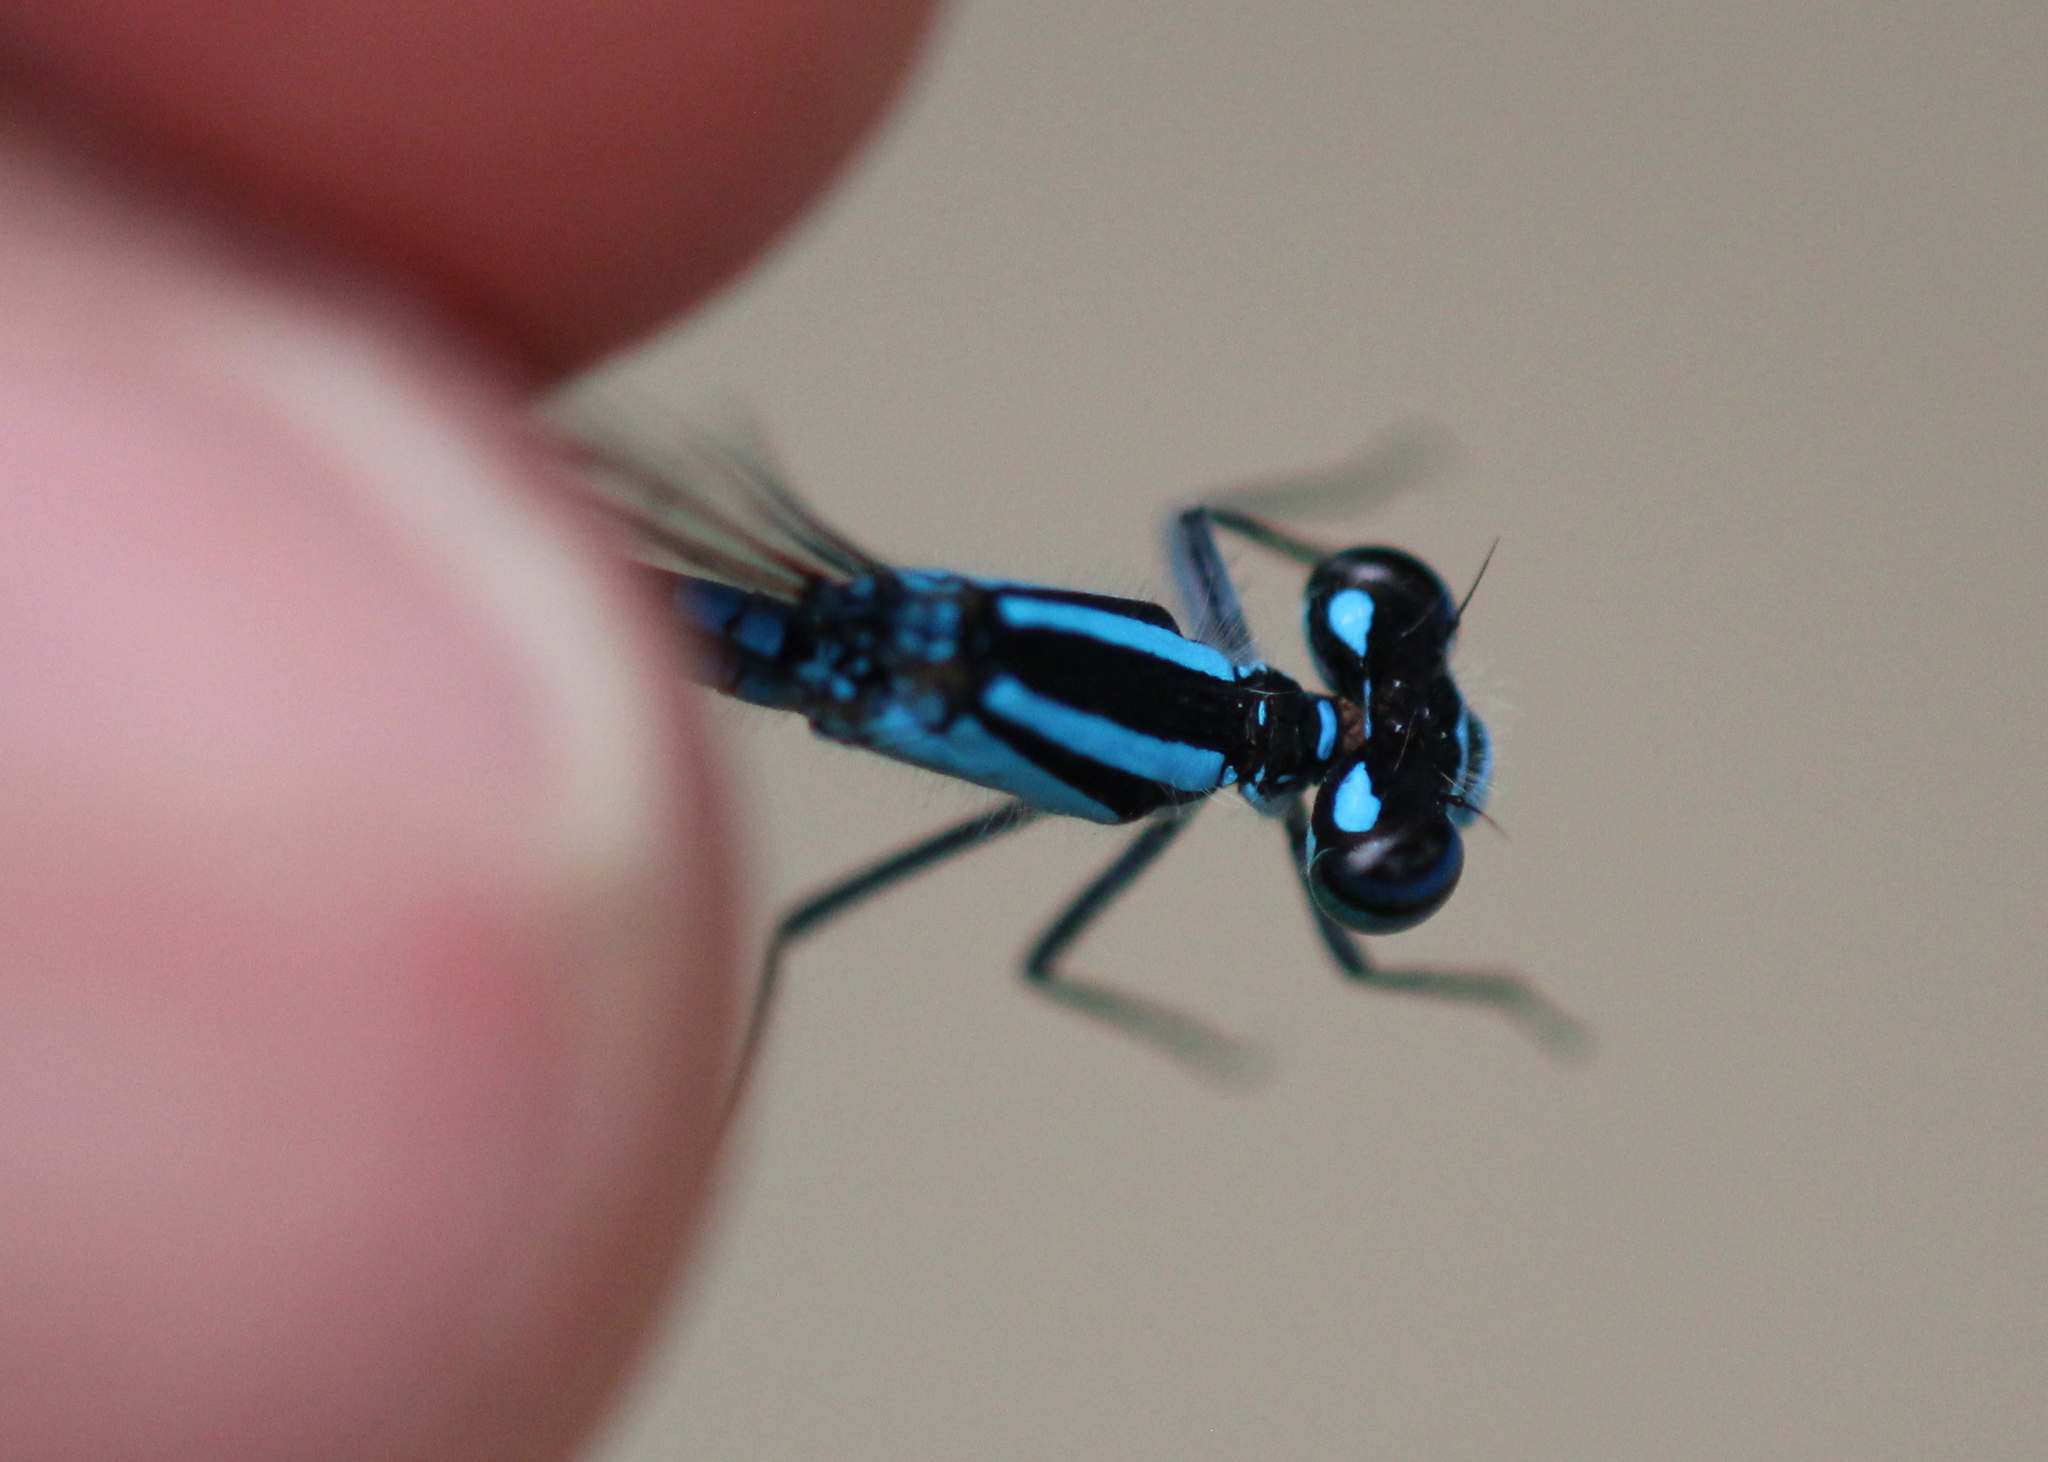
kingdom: Animalia
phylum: Arthropoda
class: Insecta
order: Odonata
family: Coenagrionidae
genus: Enallagma
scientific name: Enallagma ebrium
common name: Marsh bluet
